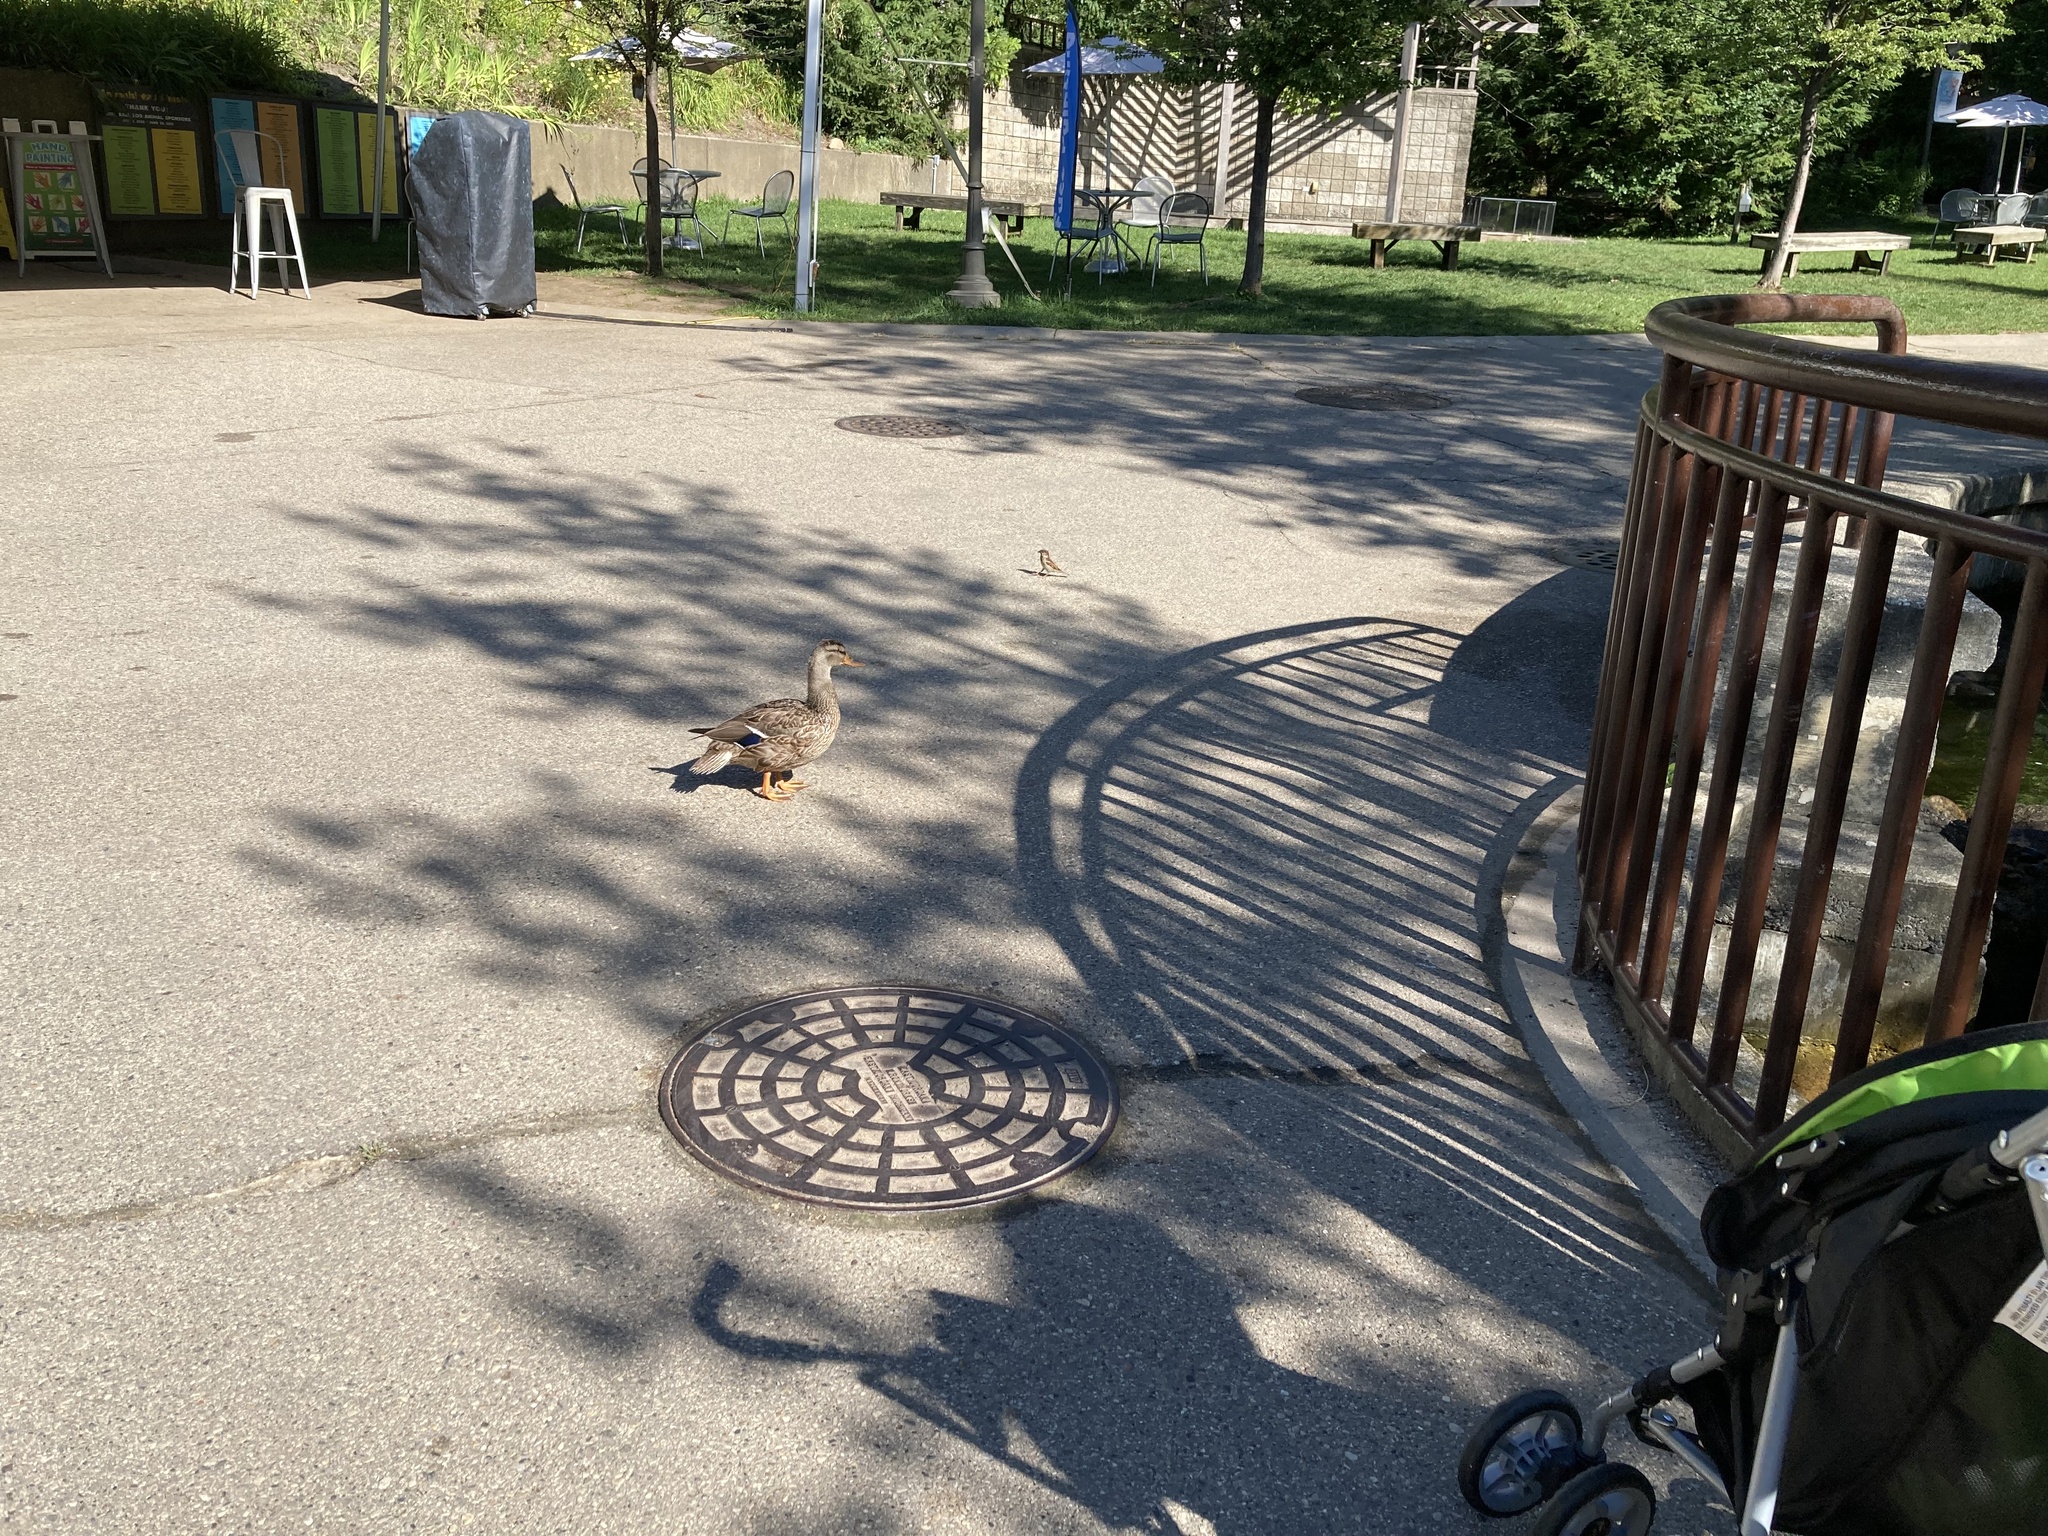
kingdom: Animalia
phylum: Chordata
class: Aves
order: Anseriformes
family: Anatidae
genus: Anas
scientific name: Anas platyrhynchos
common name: Mallard
